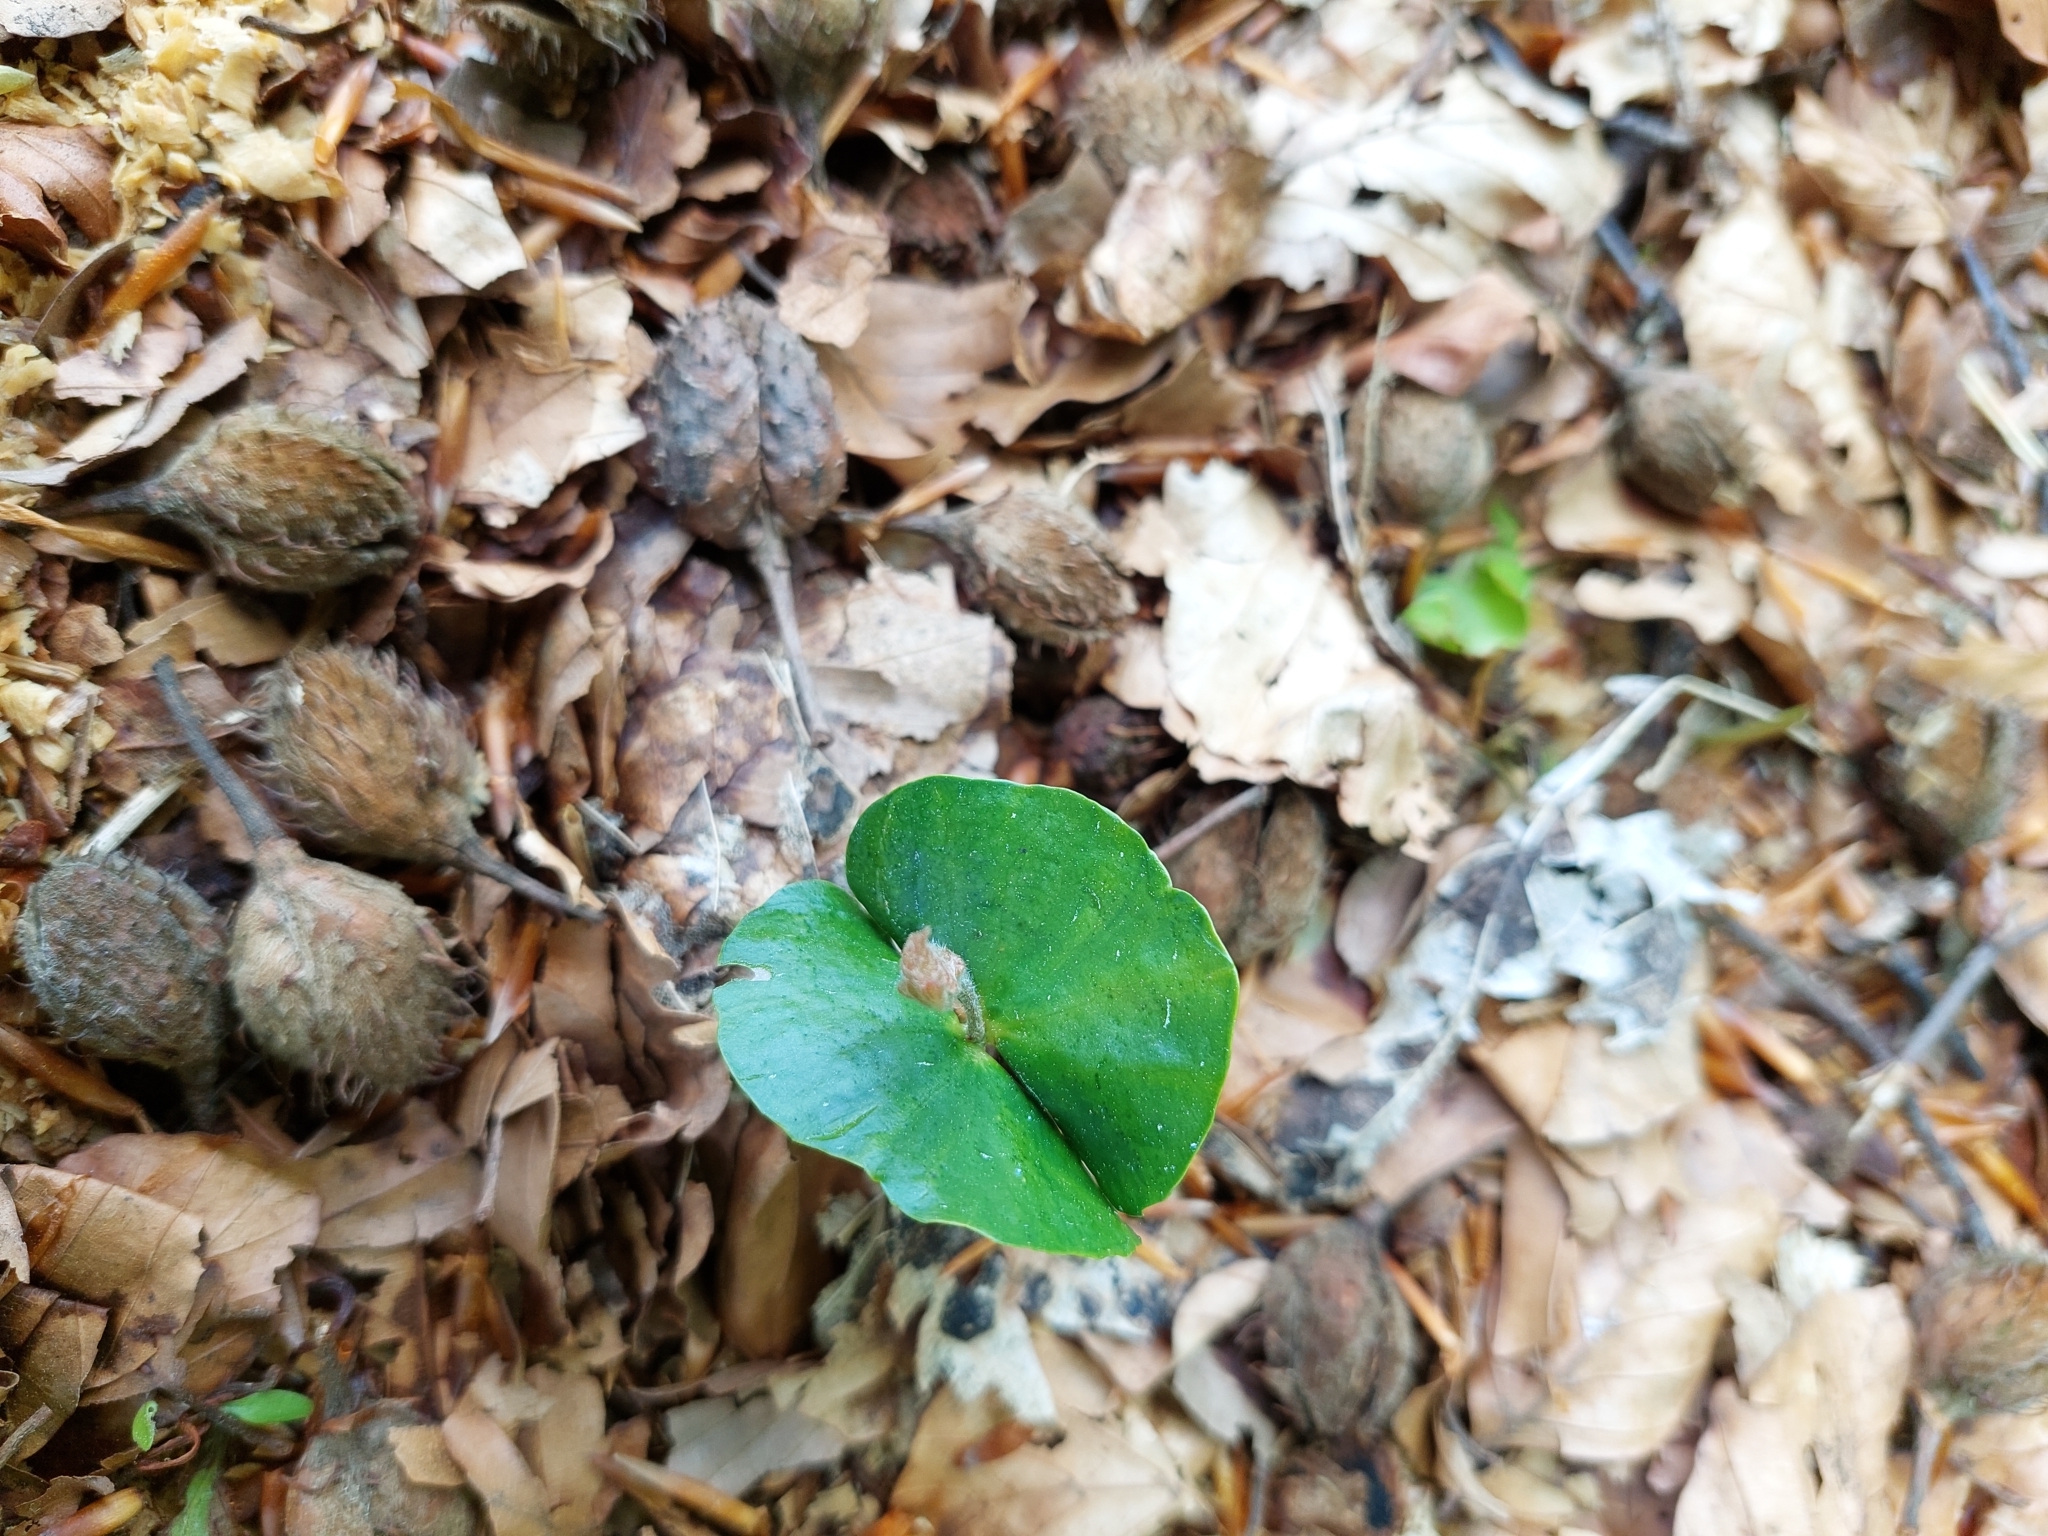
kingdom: Plantae
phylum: Tracheophyta
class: Magnoliopsida
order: Fagales
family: Fagaceae
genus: Fagus
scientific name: Fagus sylvatica
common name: Beech
